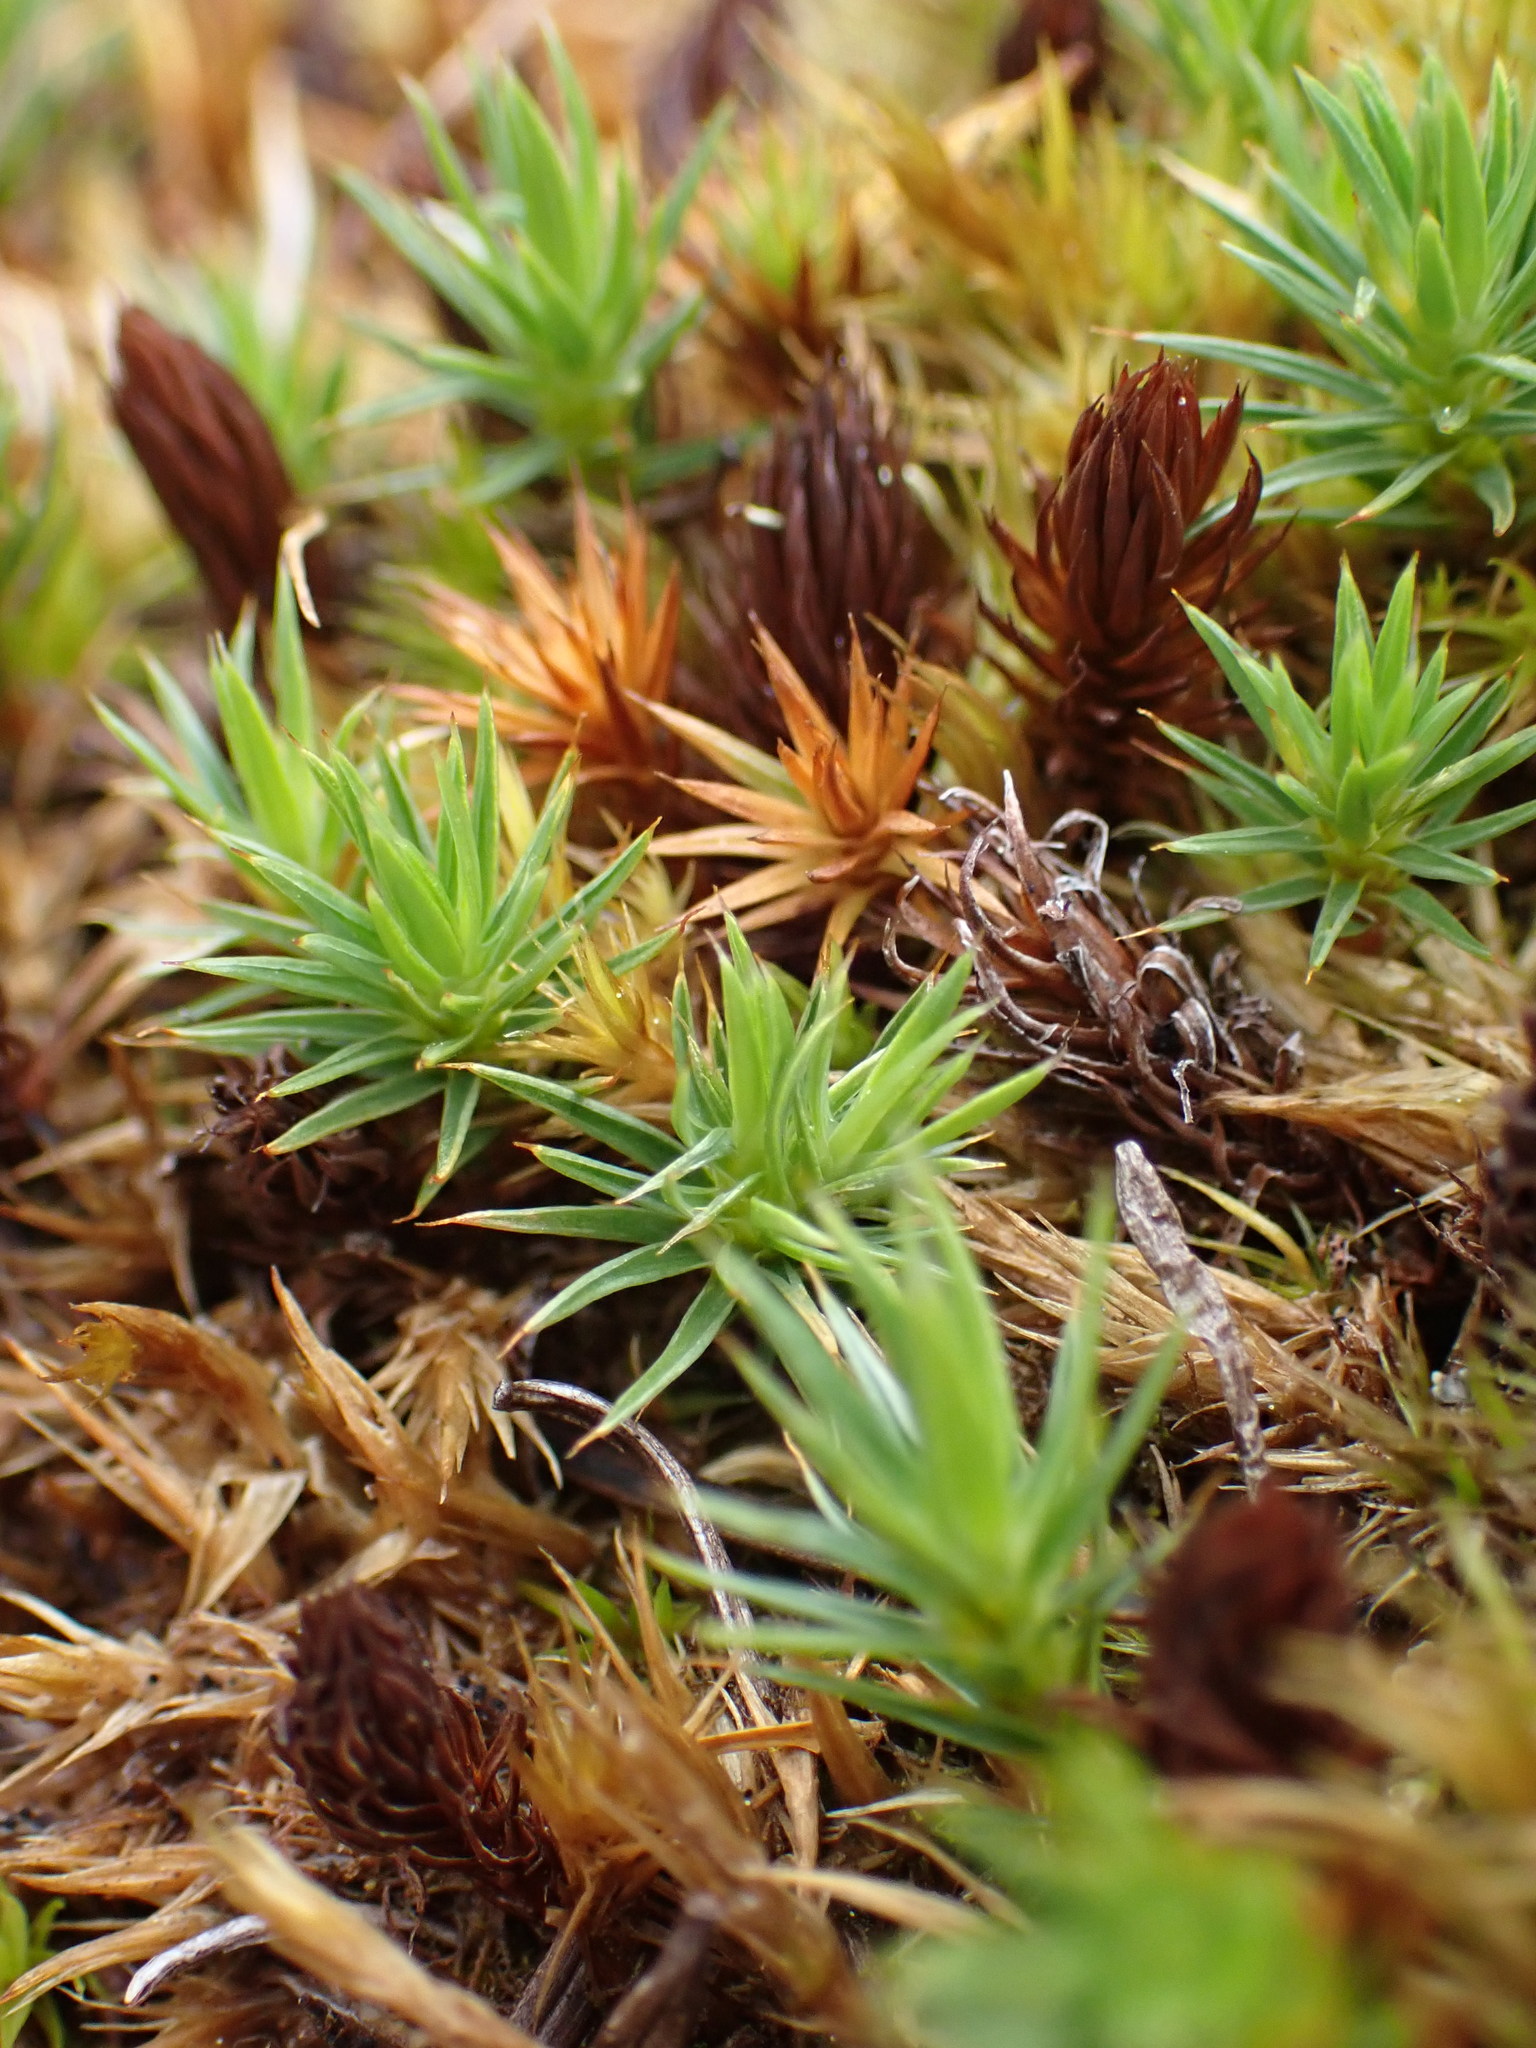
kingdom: Plantae
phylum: Bryophyta
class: Polytrichopsida
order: Polytrichales
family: Polytrichaceae
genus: Polytrichum
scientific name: Polytrichum juniperinum
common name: Juniper haircap moss
